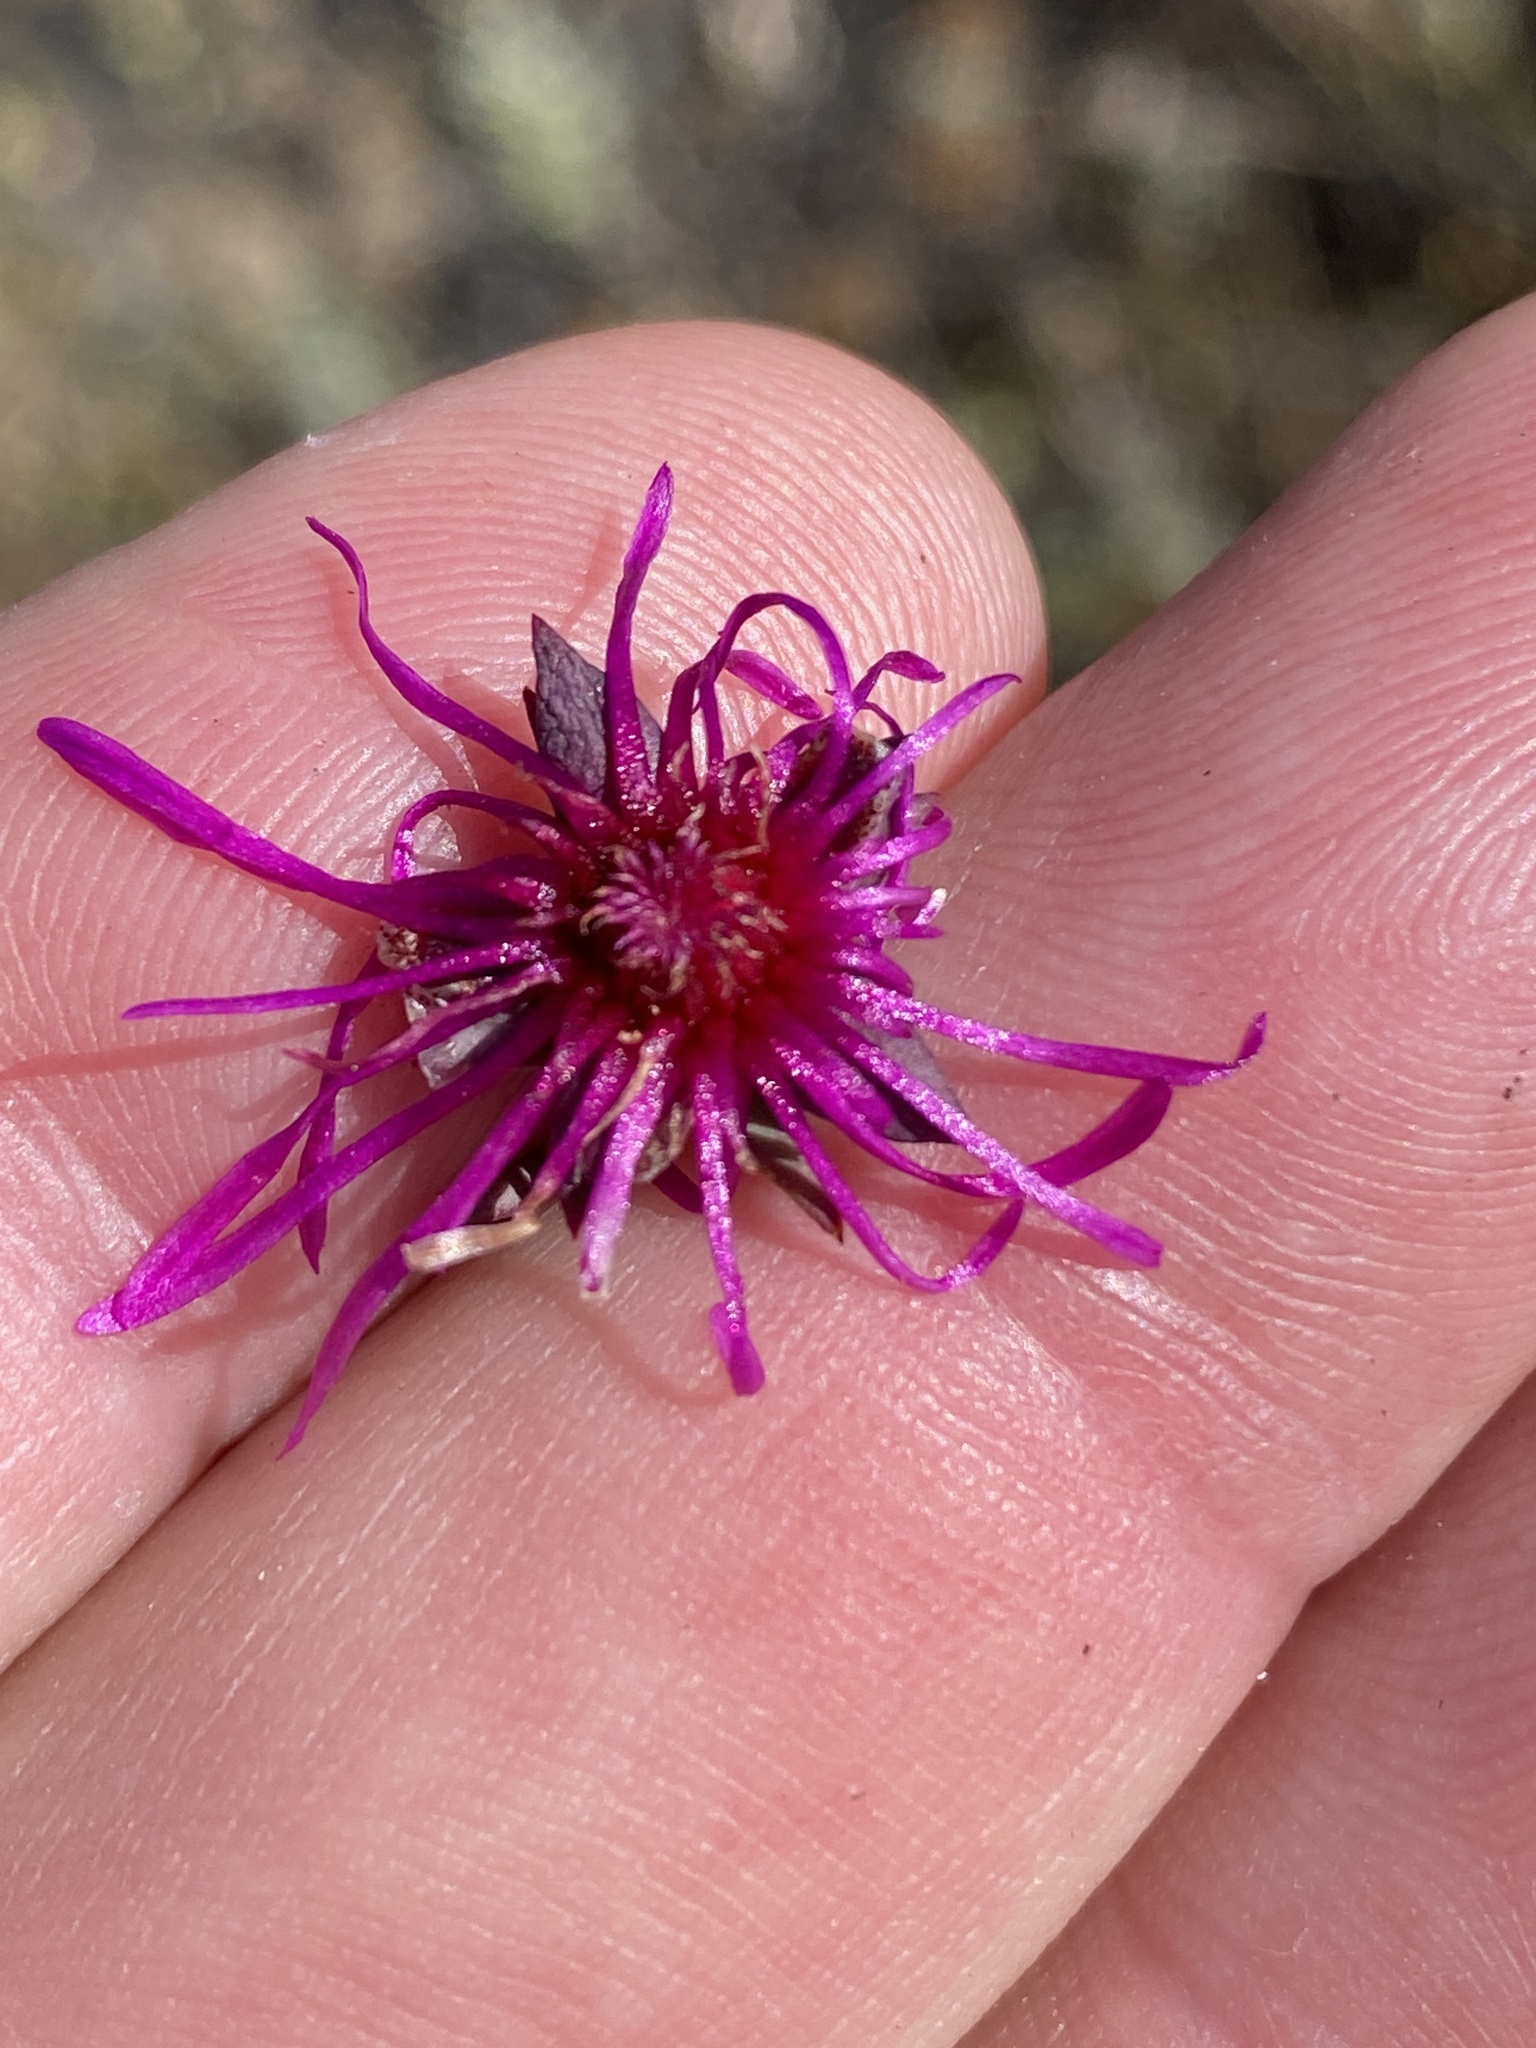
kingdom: Plantae
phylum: Tracheophyta
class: Magnoliopsida
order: Caryophyllales
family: Aizoaceae
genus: Erepsia
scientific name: Erepsia distans
